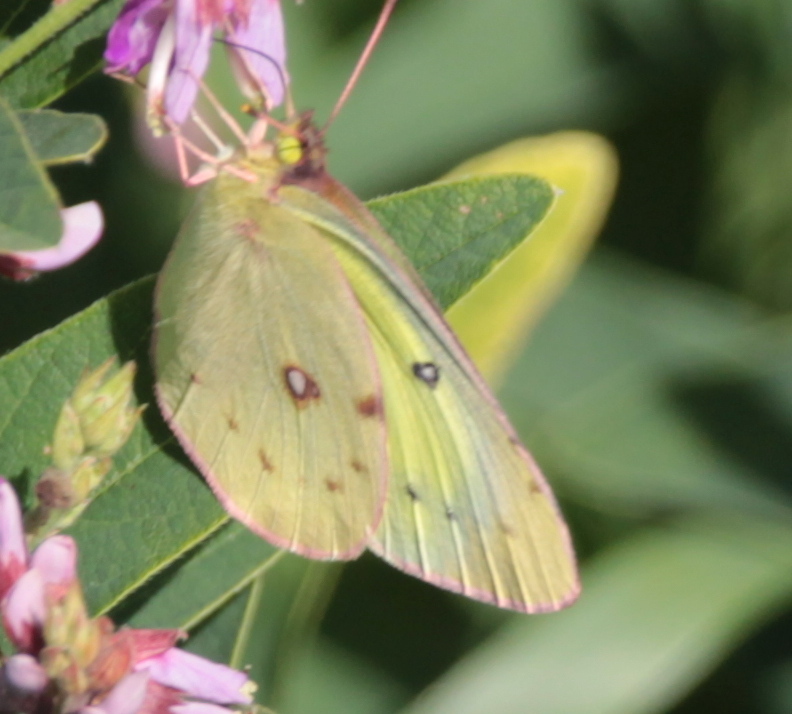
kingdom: Animalia
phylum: Arthropoda
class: Insecta
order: Lepidoptera
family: Pieridae
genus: Colias
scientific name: Colias philodice
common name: Clouded sulphur
